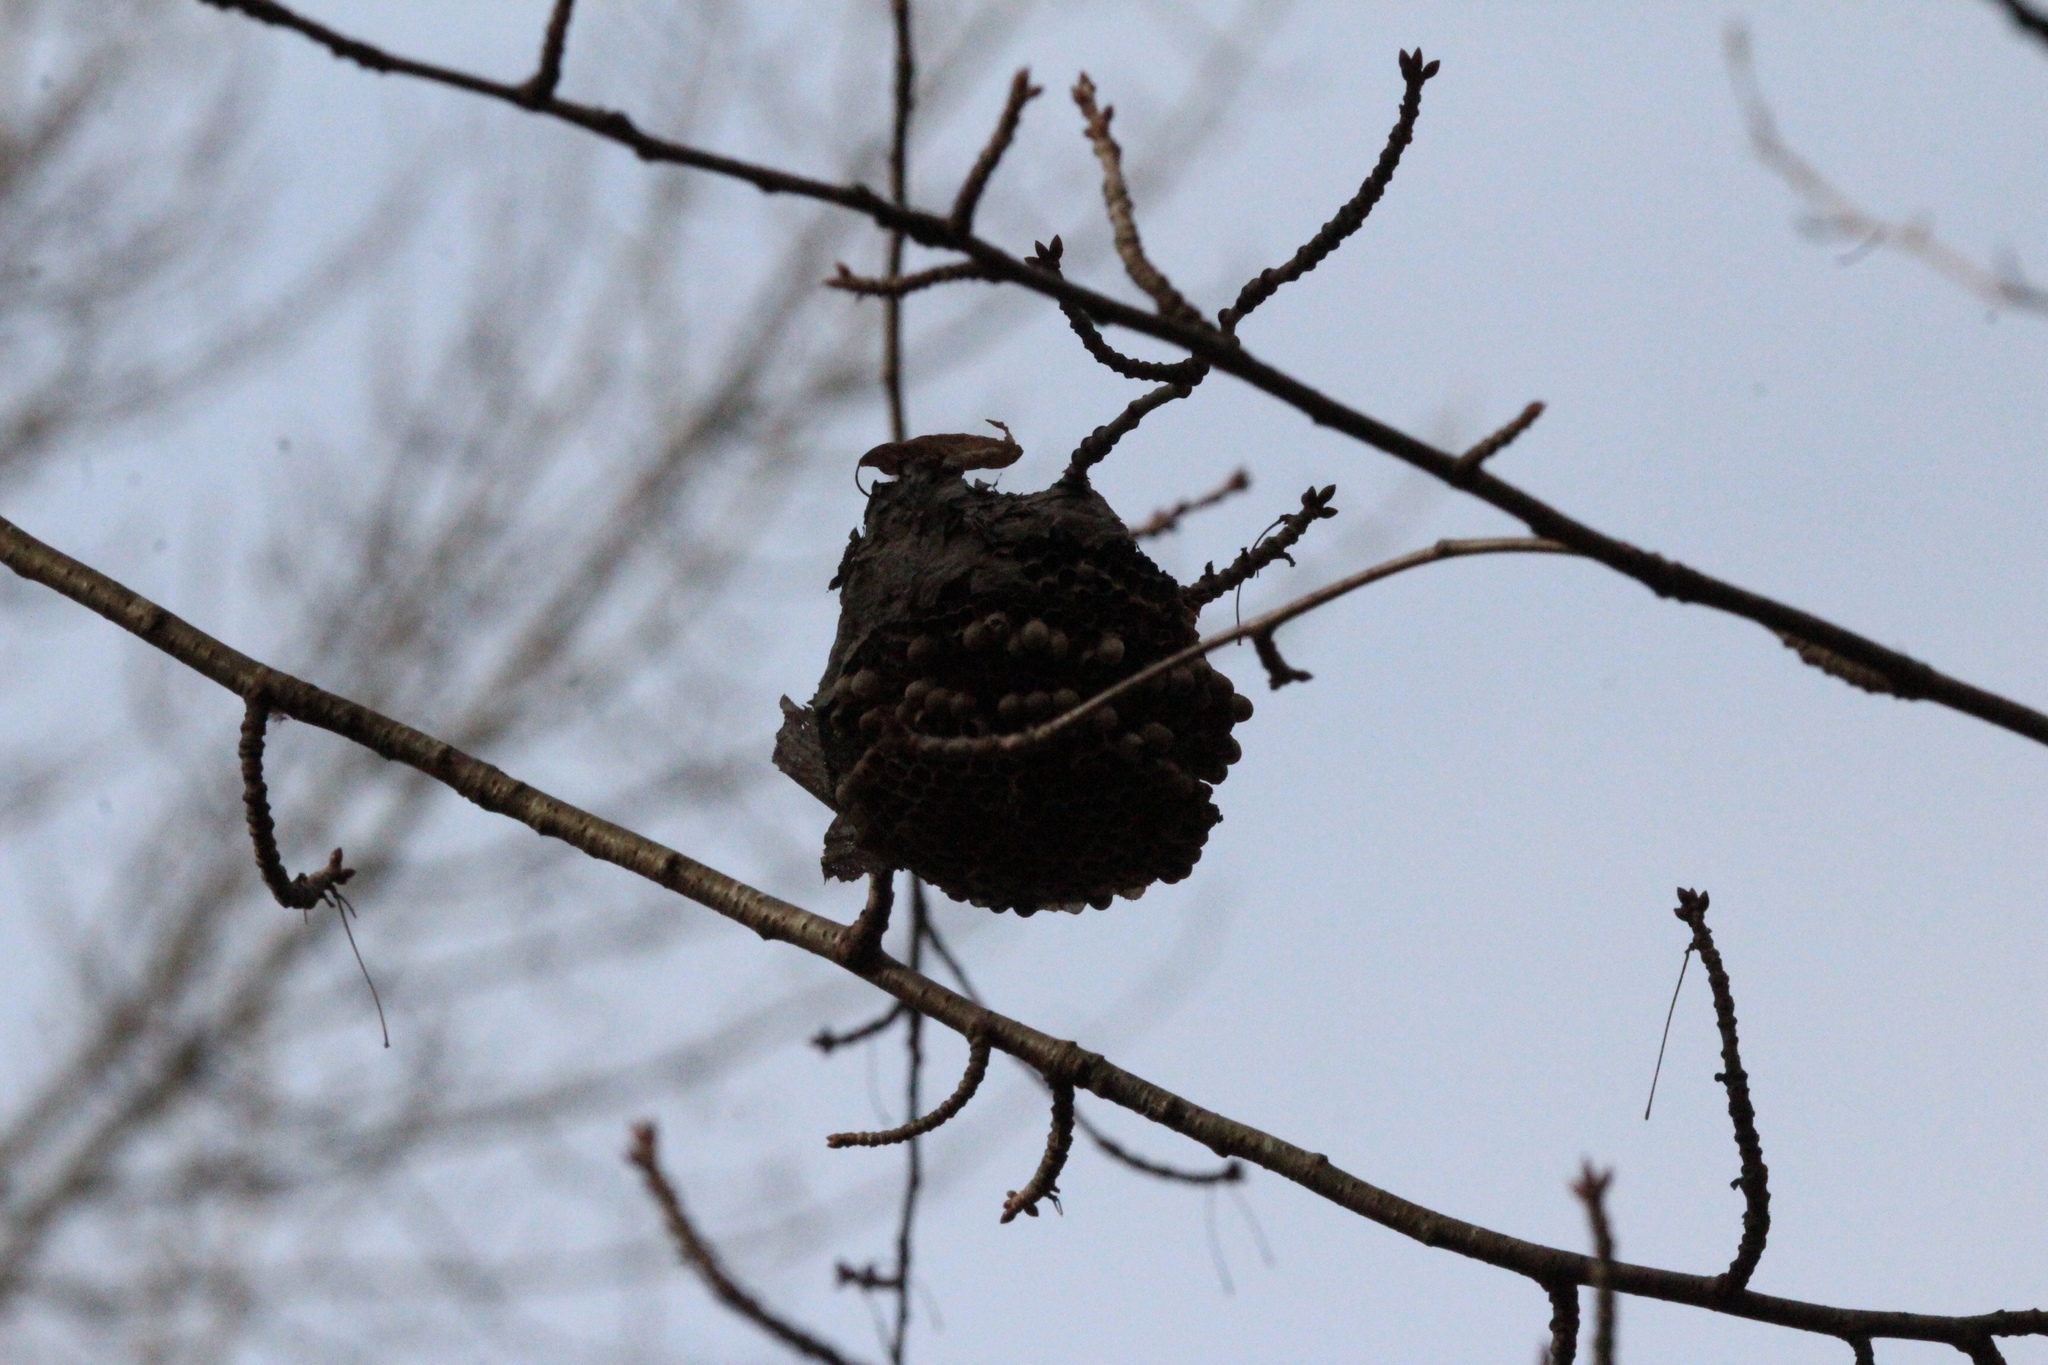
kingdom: Animalia
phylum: Arthropoda
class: Insecta
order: Hymenoptera
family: Vespidae
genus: Dolichovespula
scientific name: Dolichovespula
